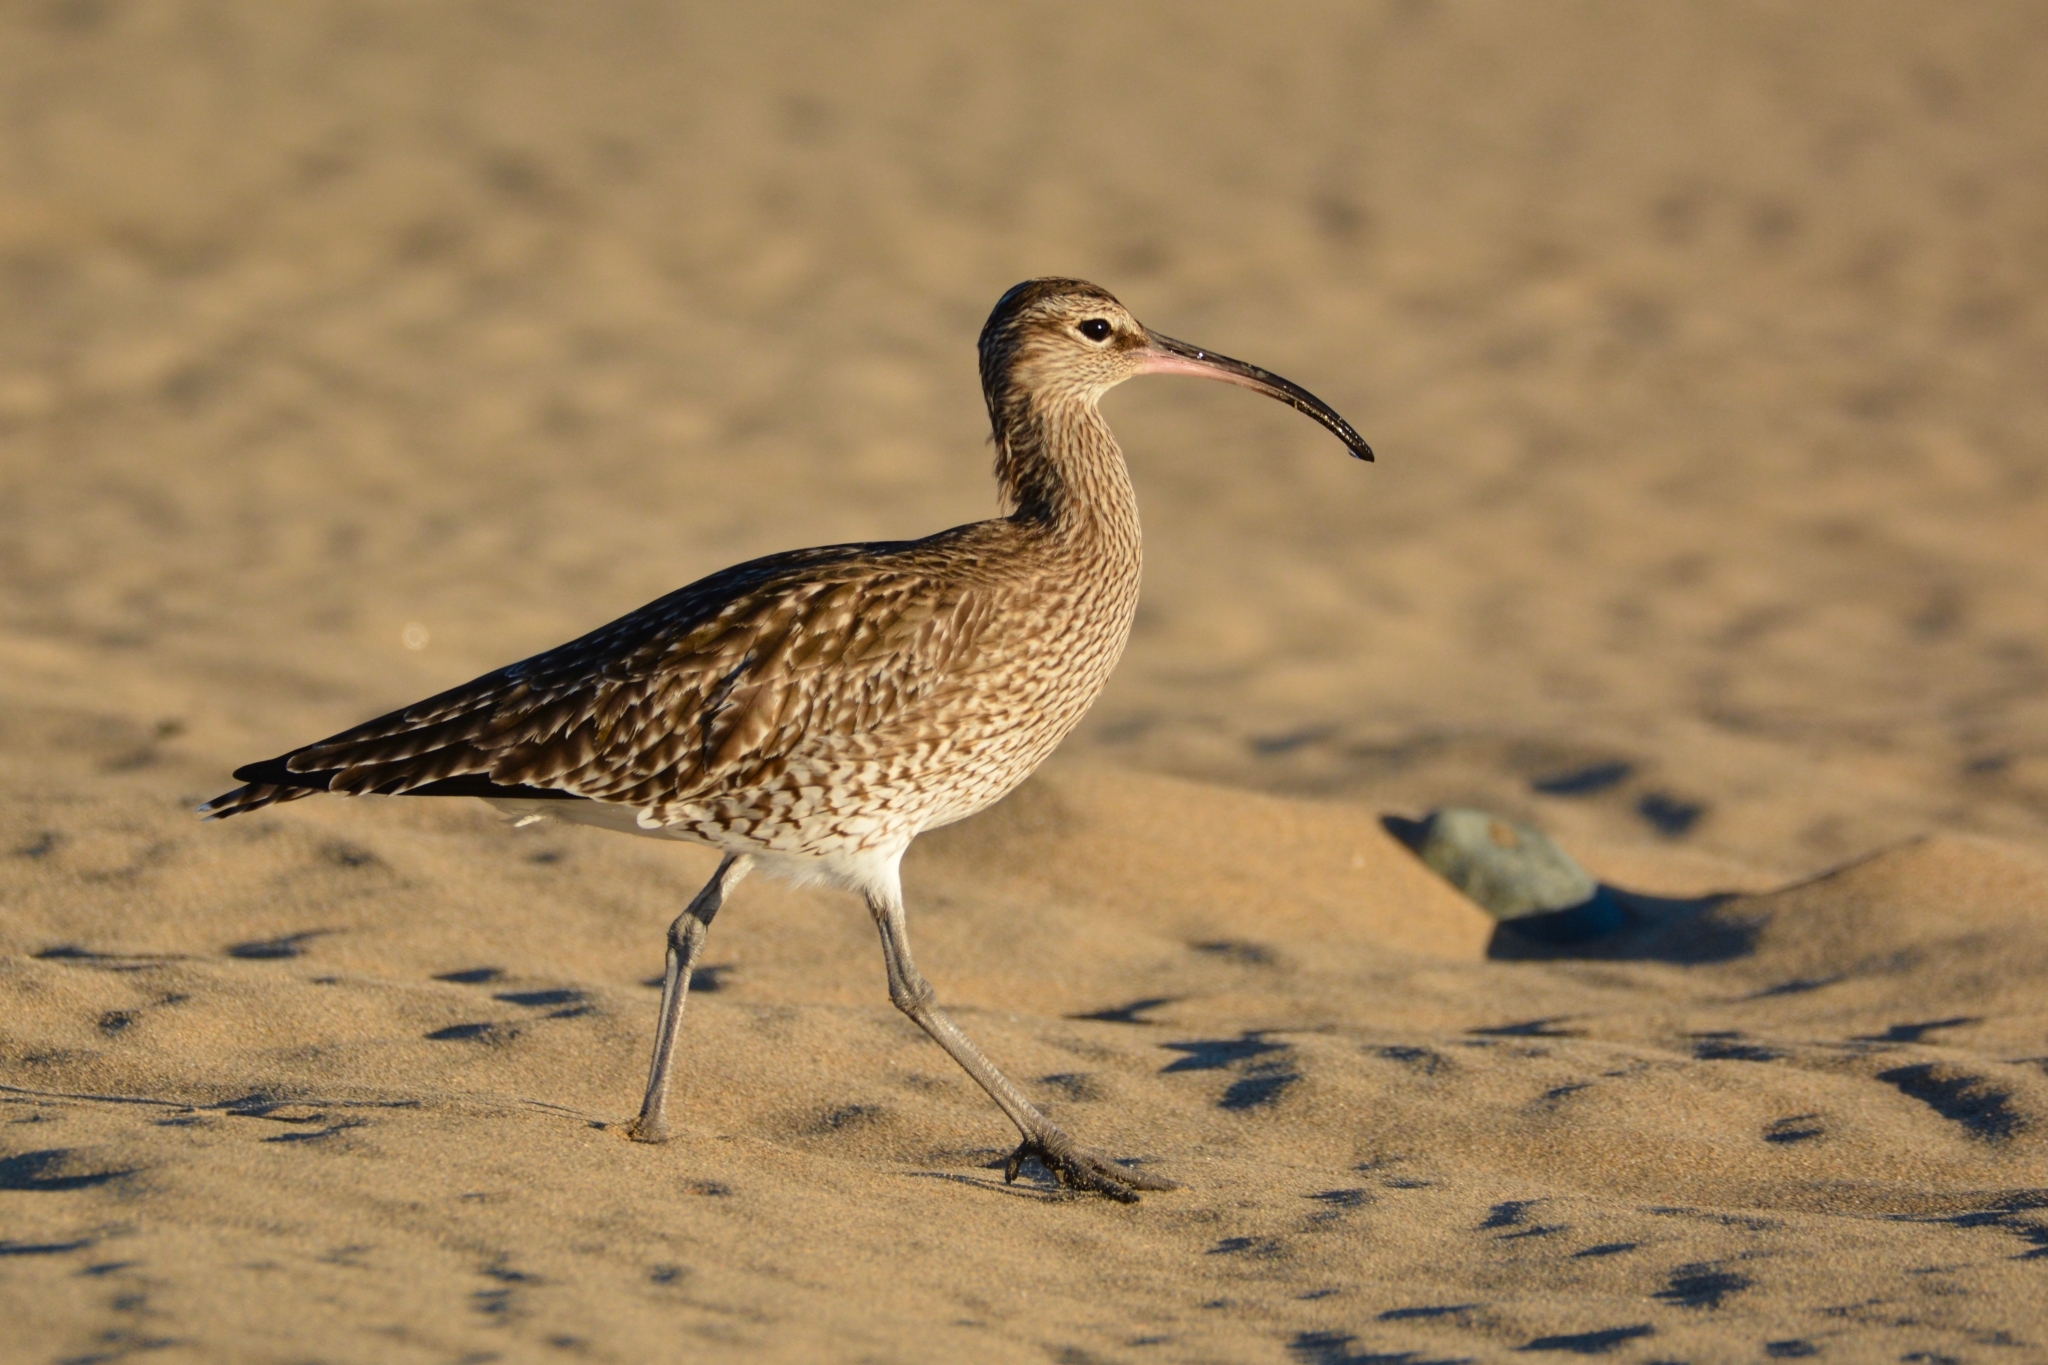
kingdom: Animalia
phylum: Chordata
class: Aves
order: Charadriiformes
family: Scolopacidae
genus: Numenius
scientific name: Numenius phaeopus
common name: Whimbrel
